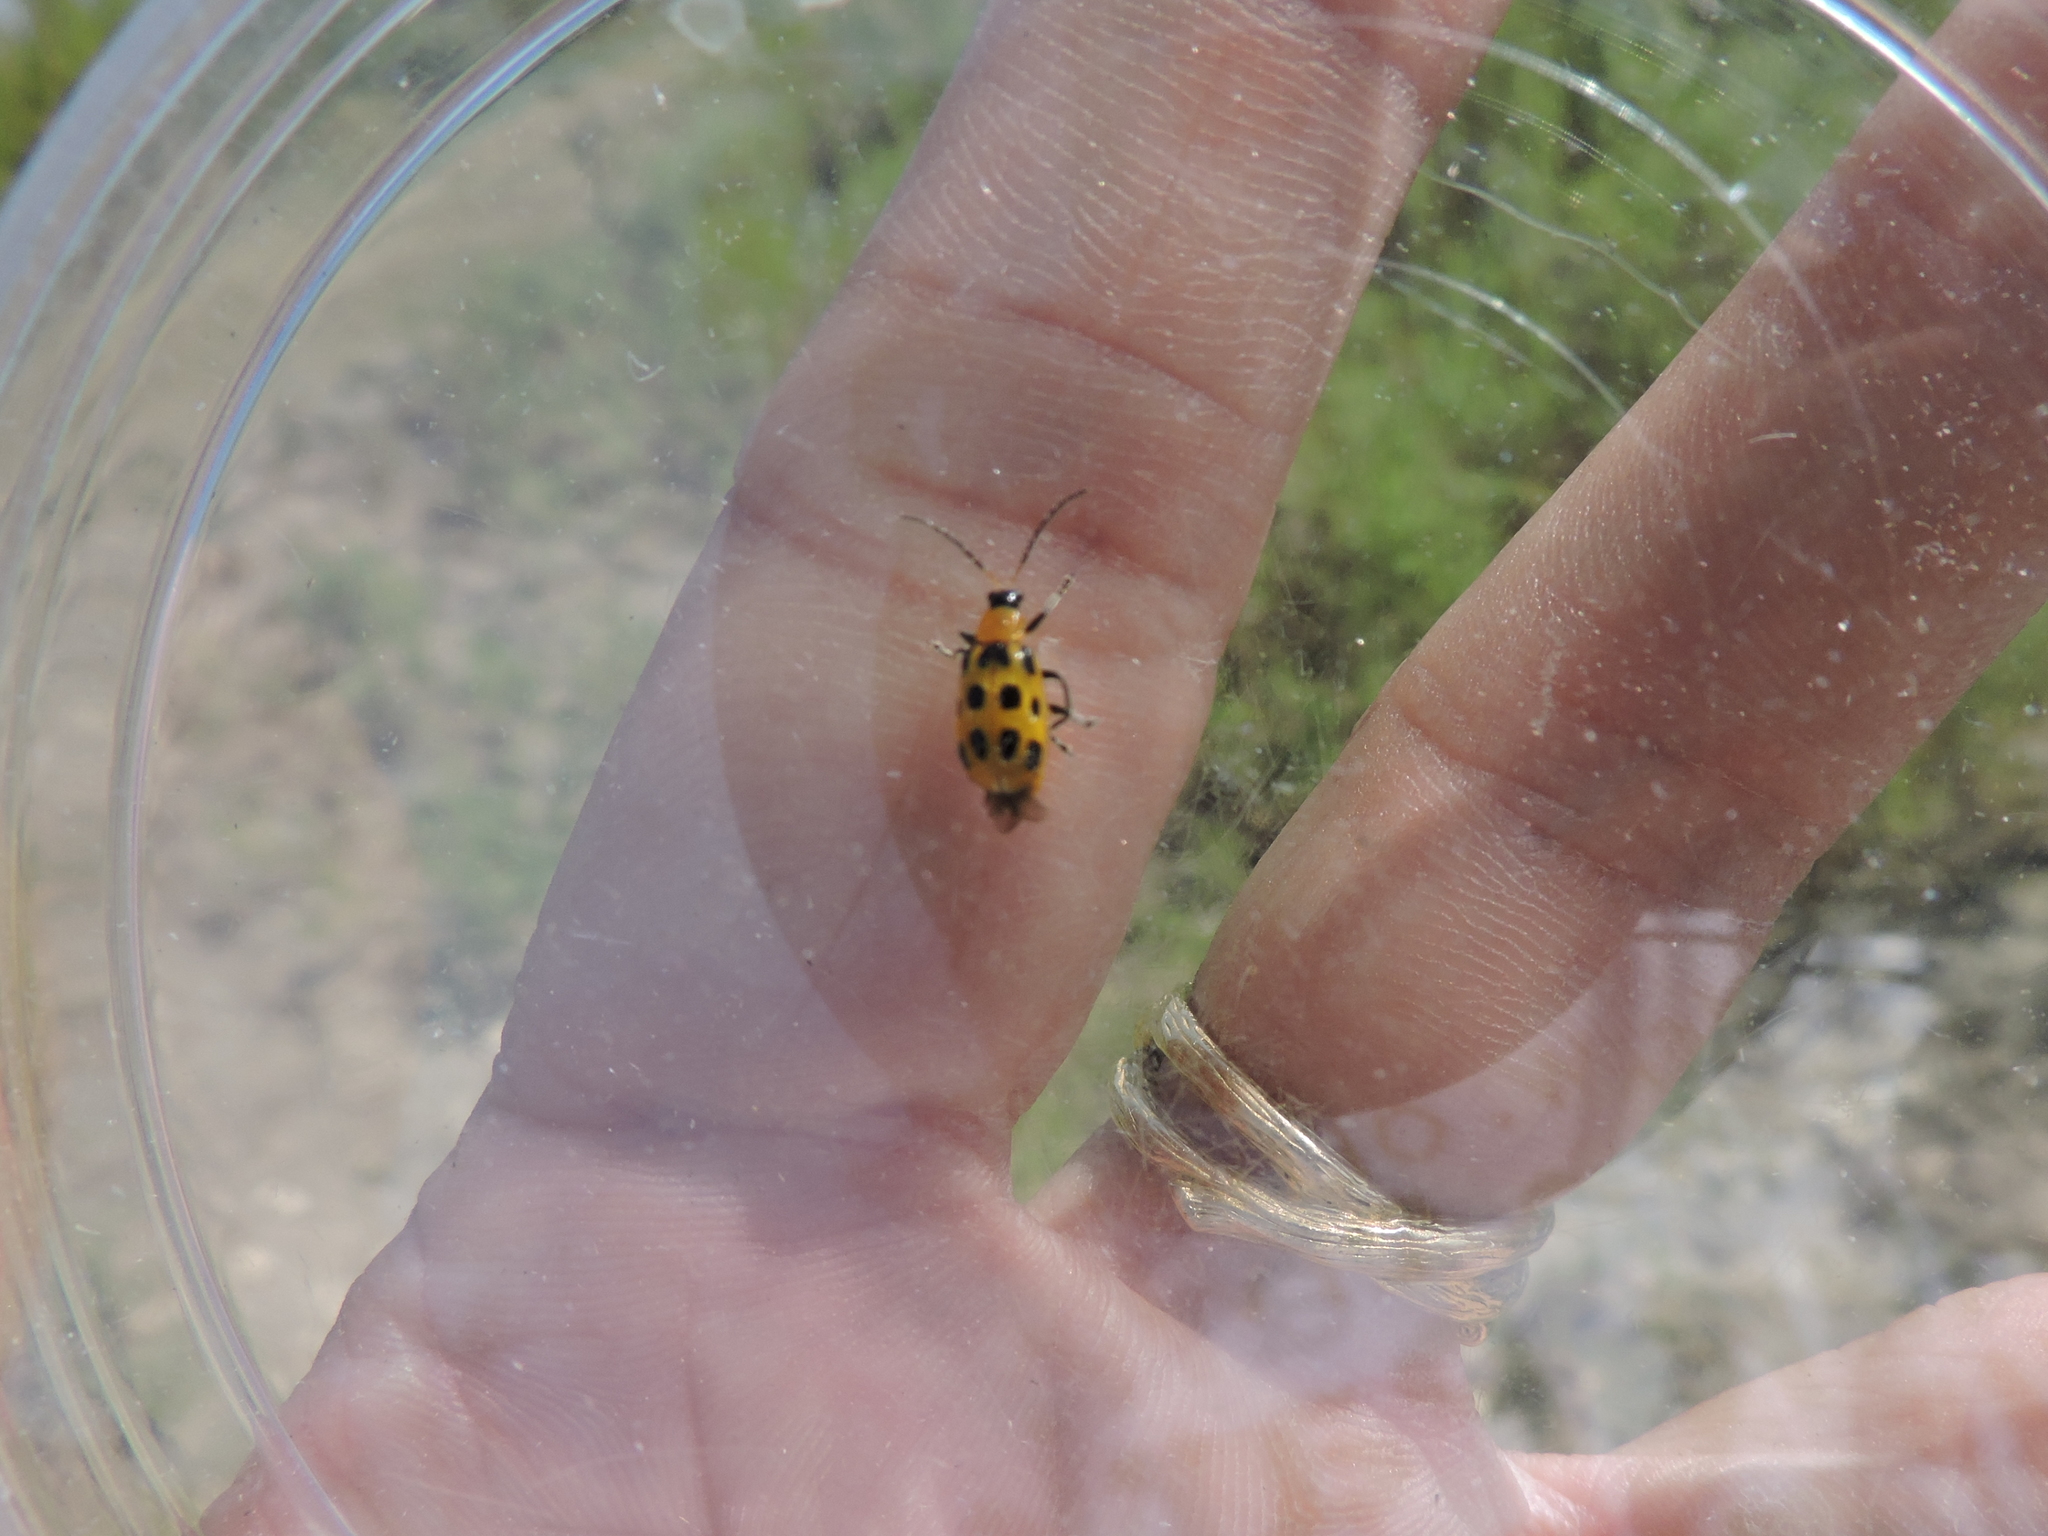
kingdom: Animalia
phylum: Arthropoda
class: Insecta
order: Coleoptera
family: Chrysomelidae
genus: Diabrotica
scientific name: Diabrotica undecimpunctata
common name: Spotted cucumber beetle
